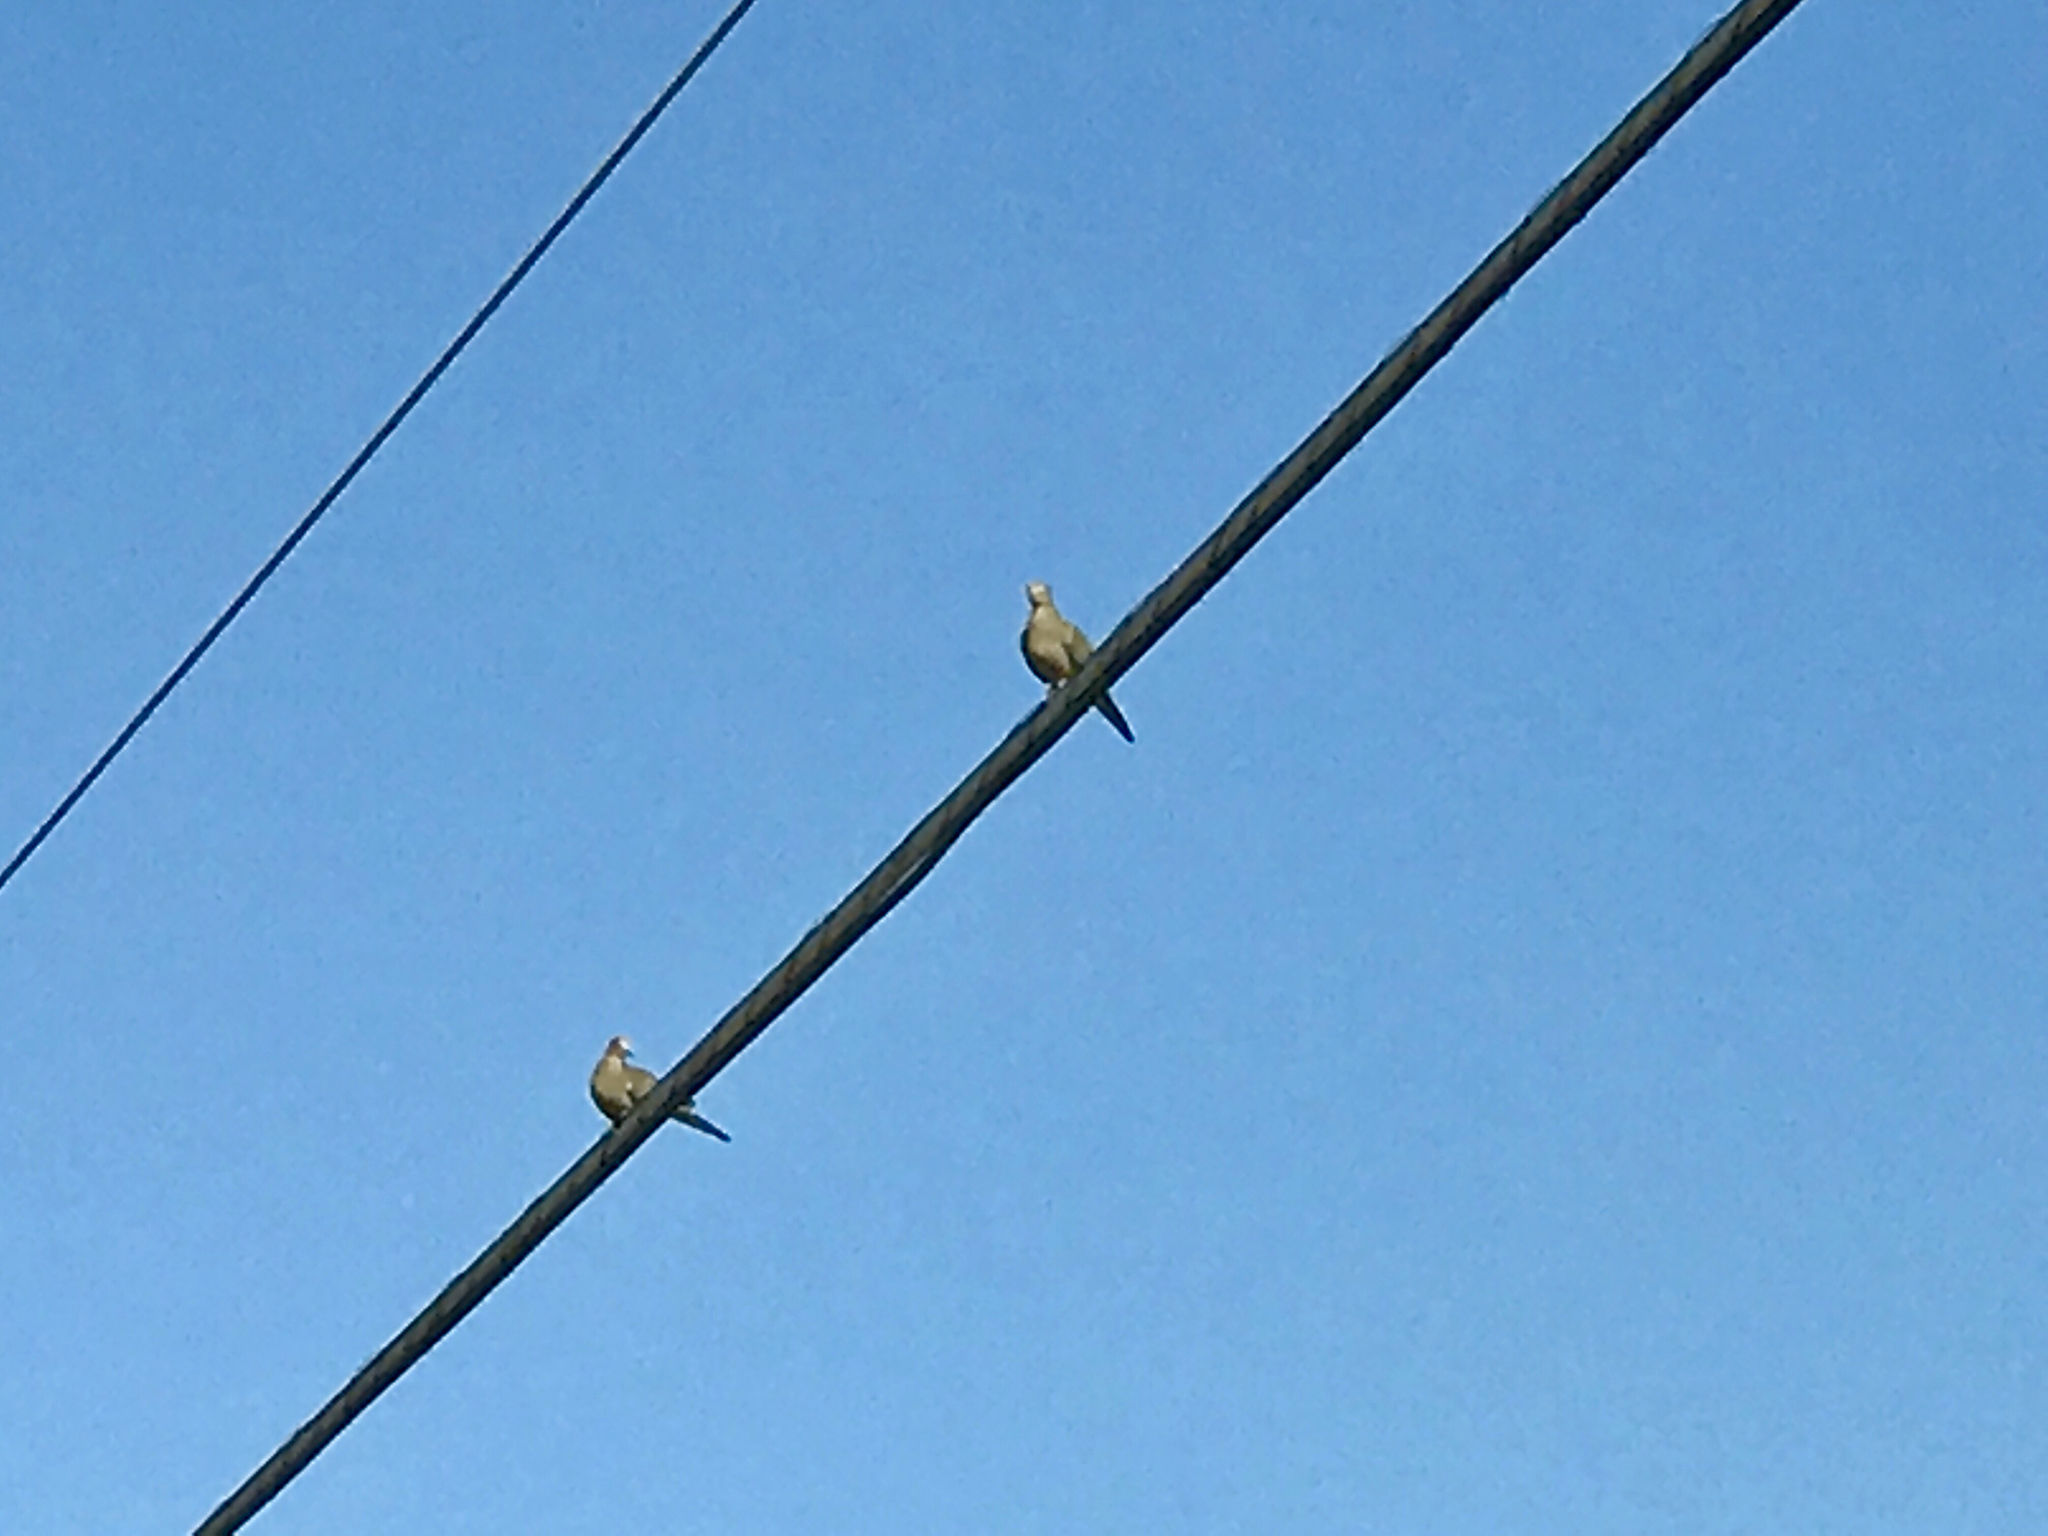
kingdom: Animalia
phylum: Chordata
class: Aves
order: Columbiformes
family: Columbidae
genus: Zenaida
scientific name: Zenaida macroura
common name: Mourning dove
